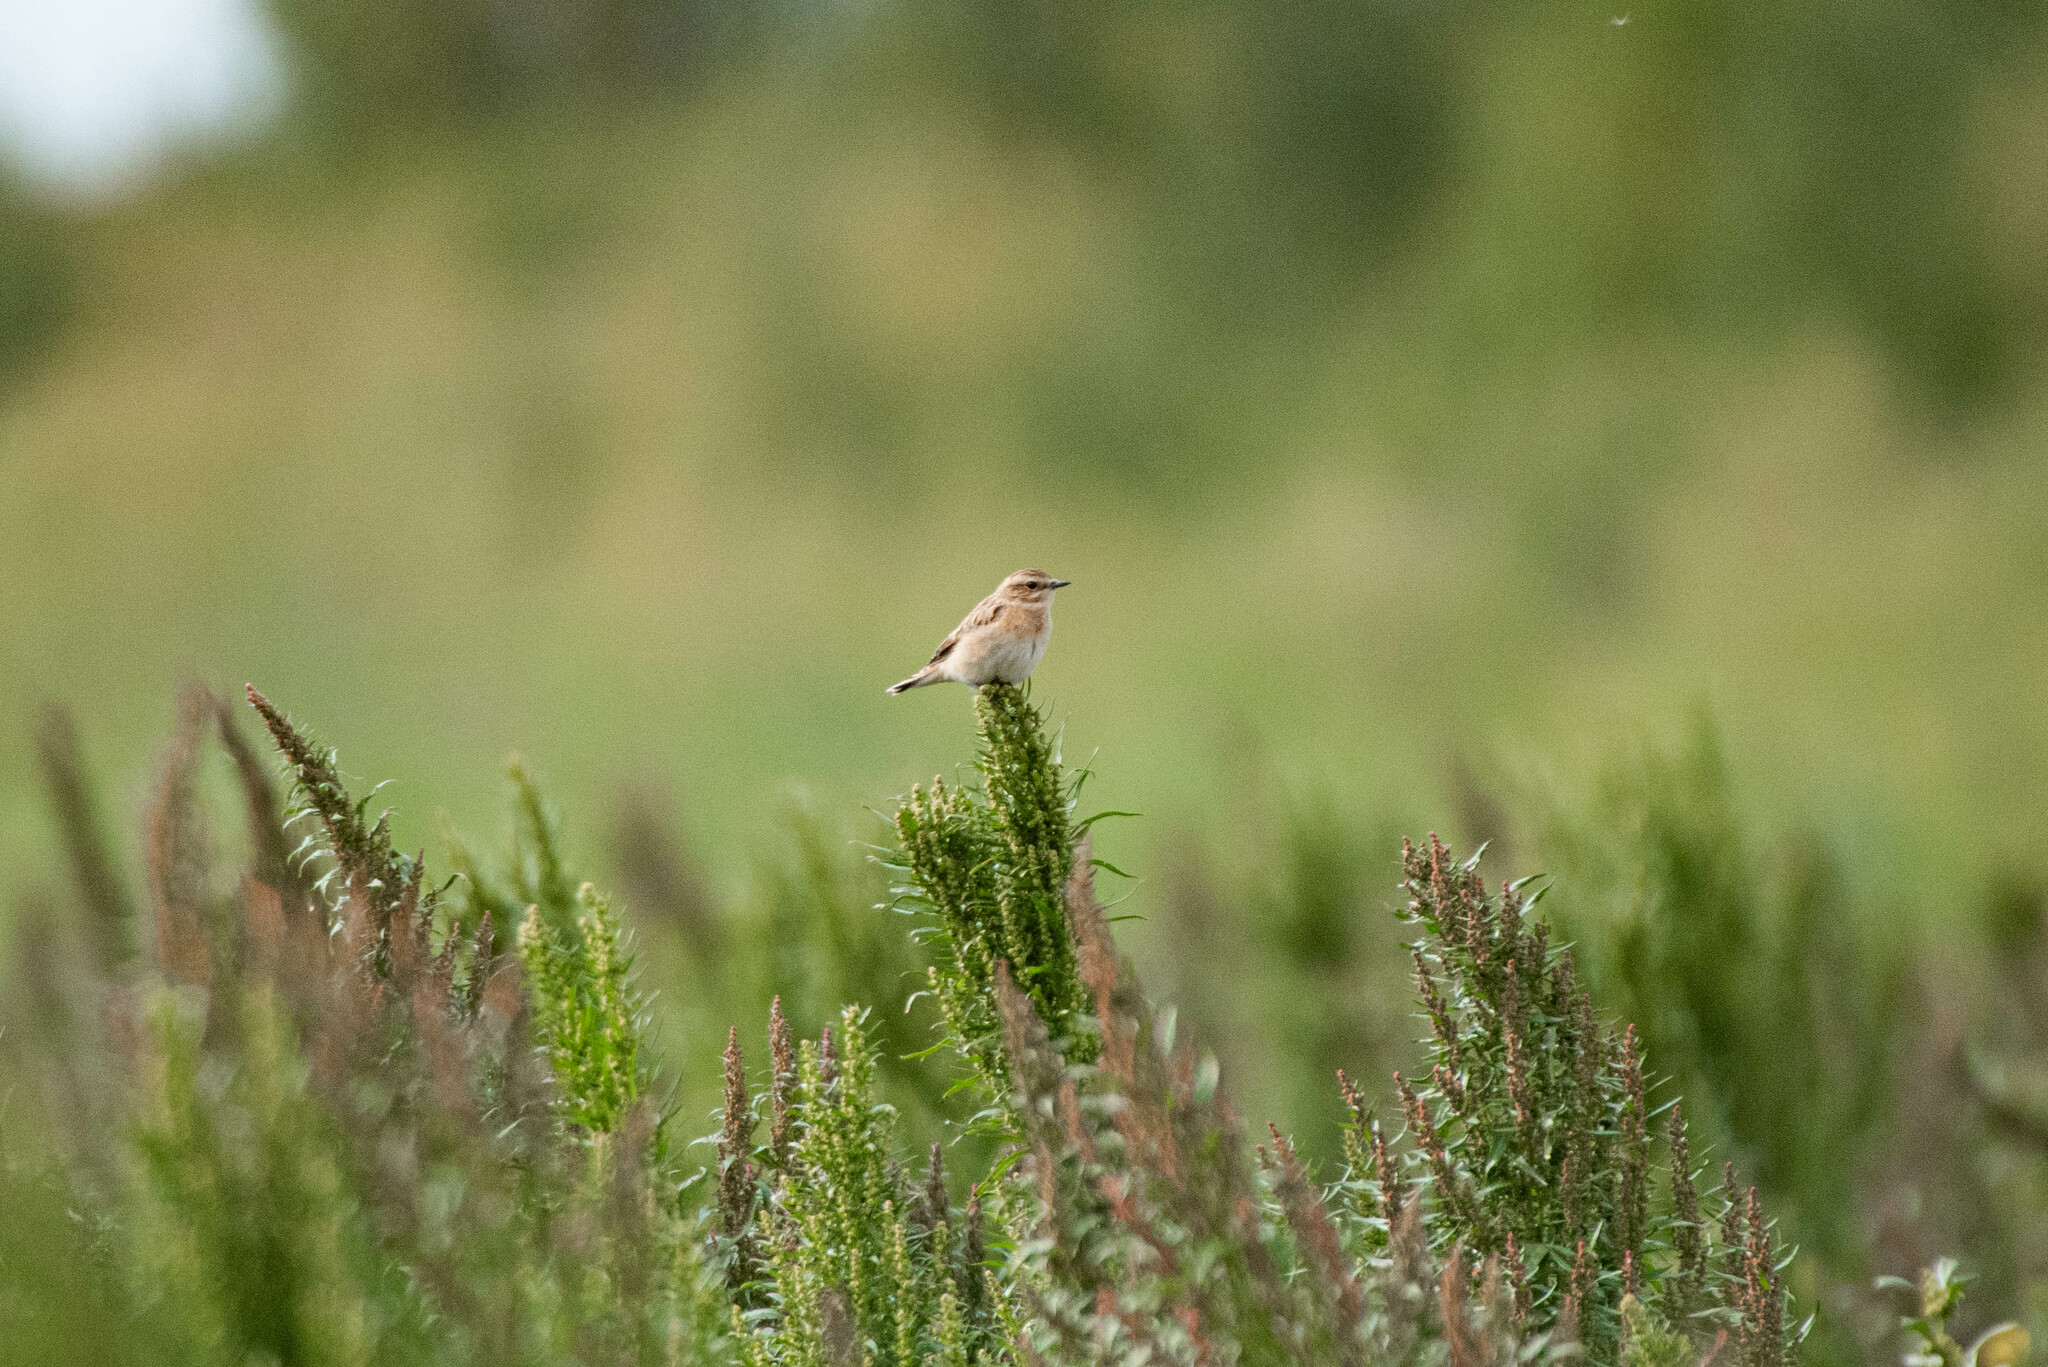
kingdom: Animalia
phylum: Chordata
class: Aves
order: Passeriformes
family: Muscicapidae
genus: Saxicola
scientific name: Saxicola rubetra
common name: Whinchat
